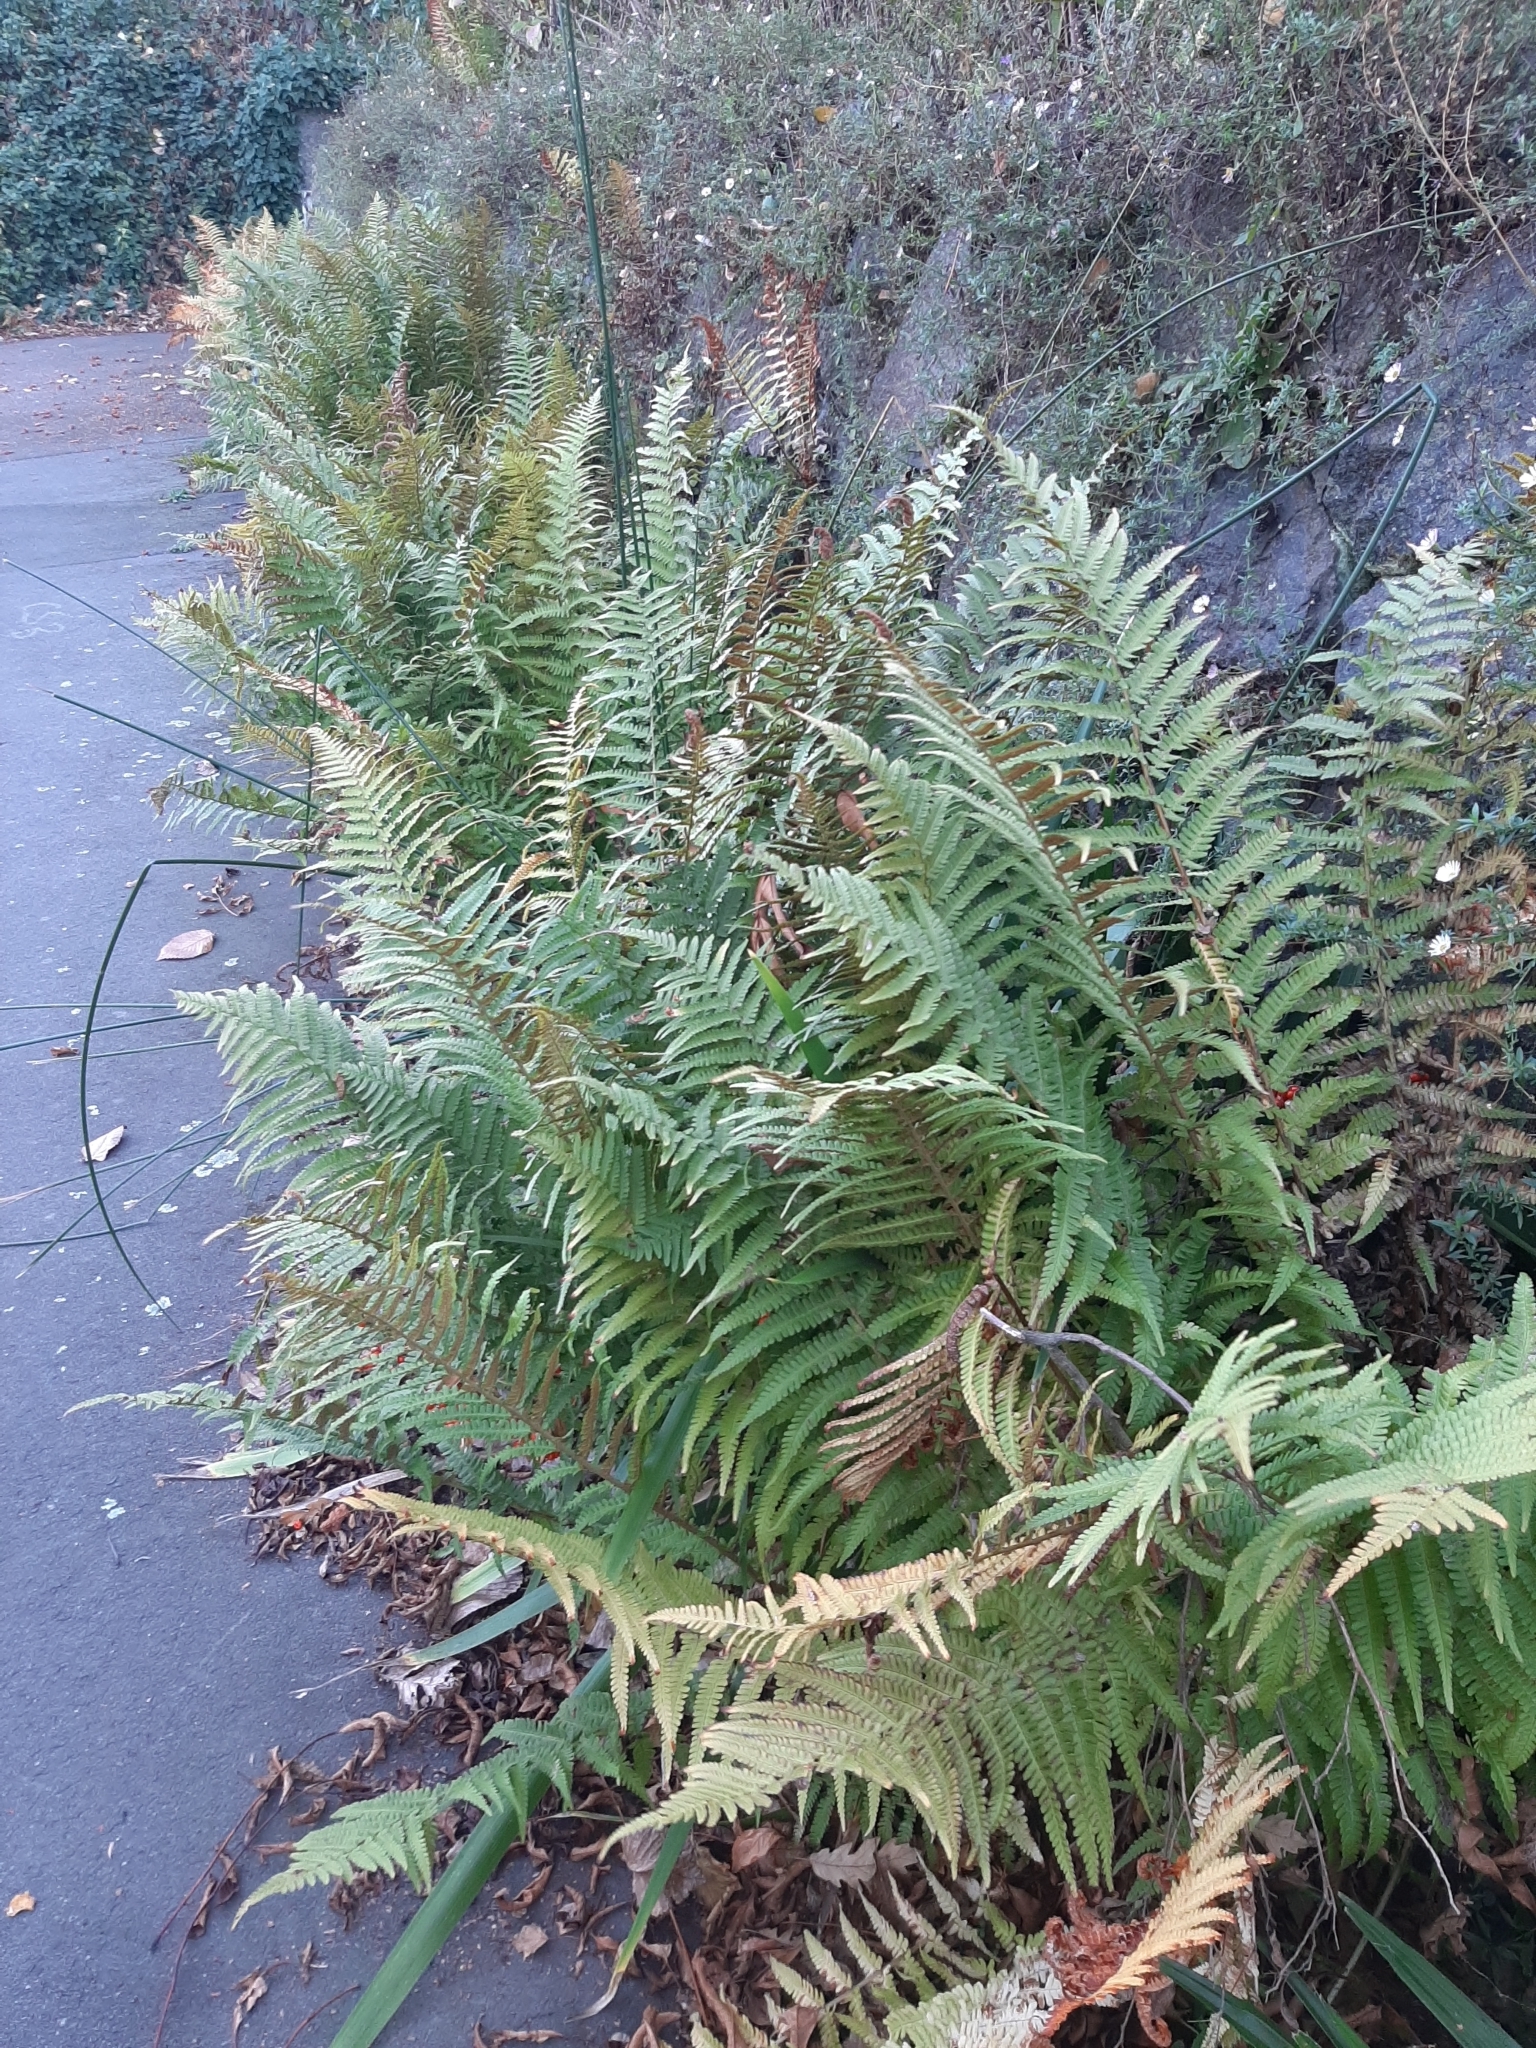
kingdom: Plantae
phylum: Tracheophyta
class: Polypodiopsida
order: Polypodiales
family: Dryopteridaceae
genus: Dryopteris
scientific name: Dryopteris filix-mas
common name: Male fern
